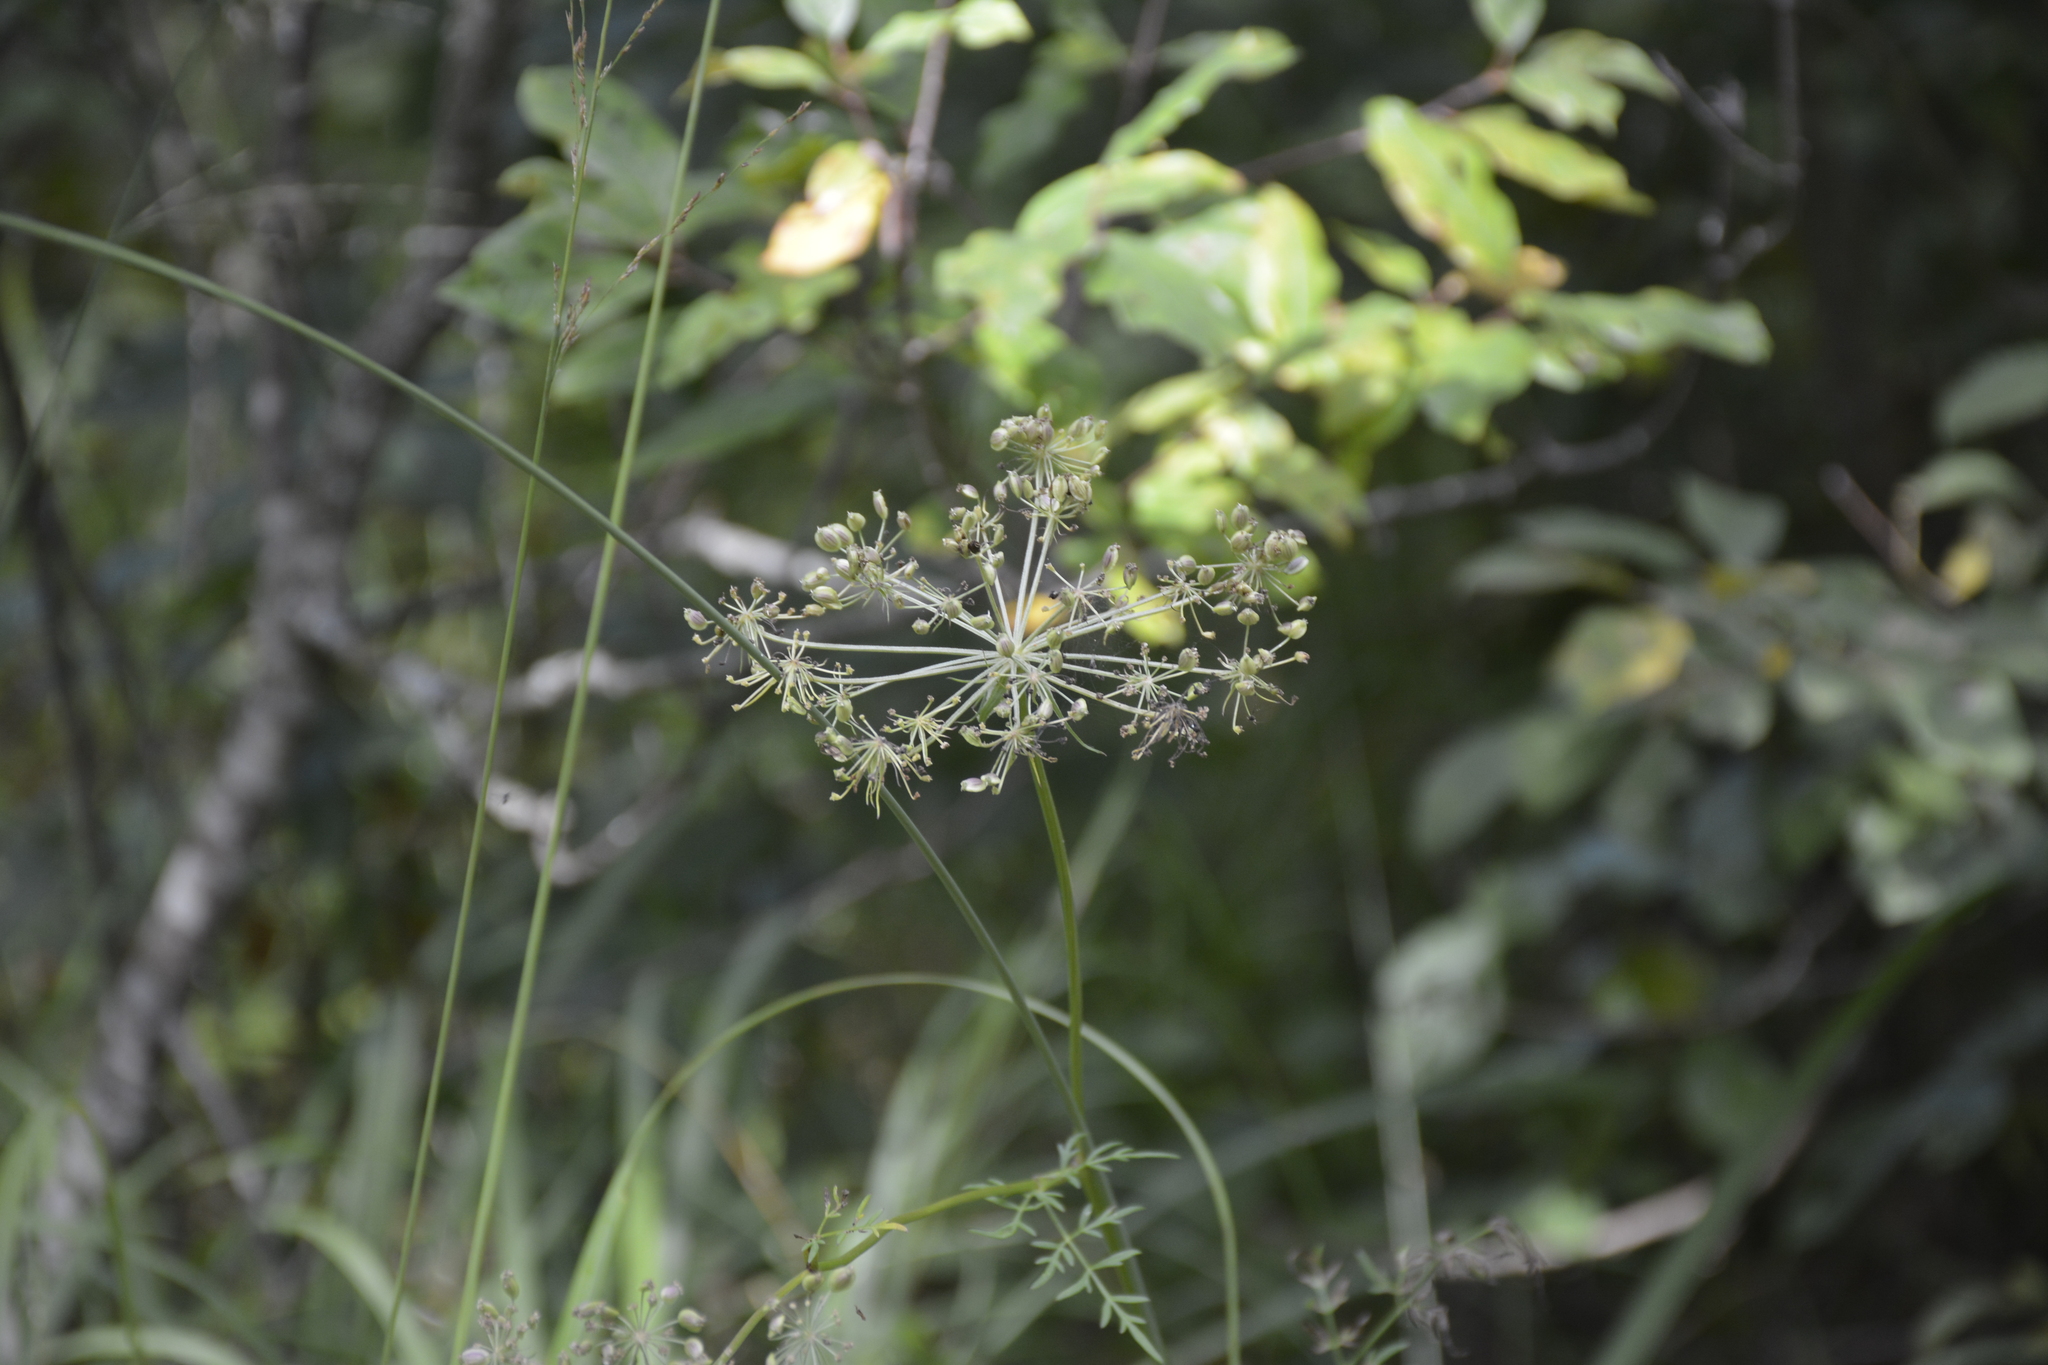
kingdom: Plantae
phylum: Tracheophyta
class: Magnoliopsida
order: Apiales
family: Apiaceae
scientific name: Apiaceae
